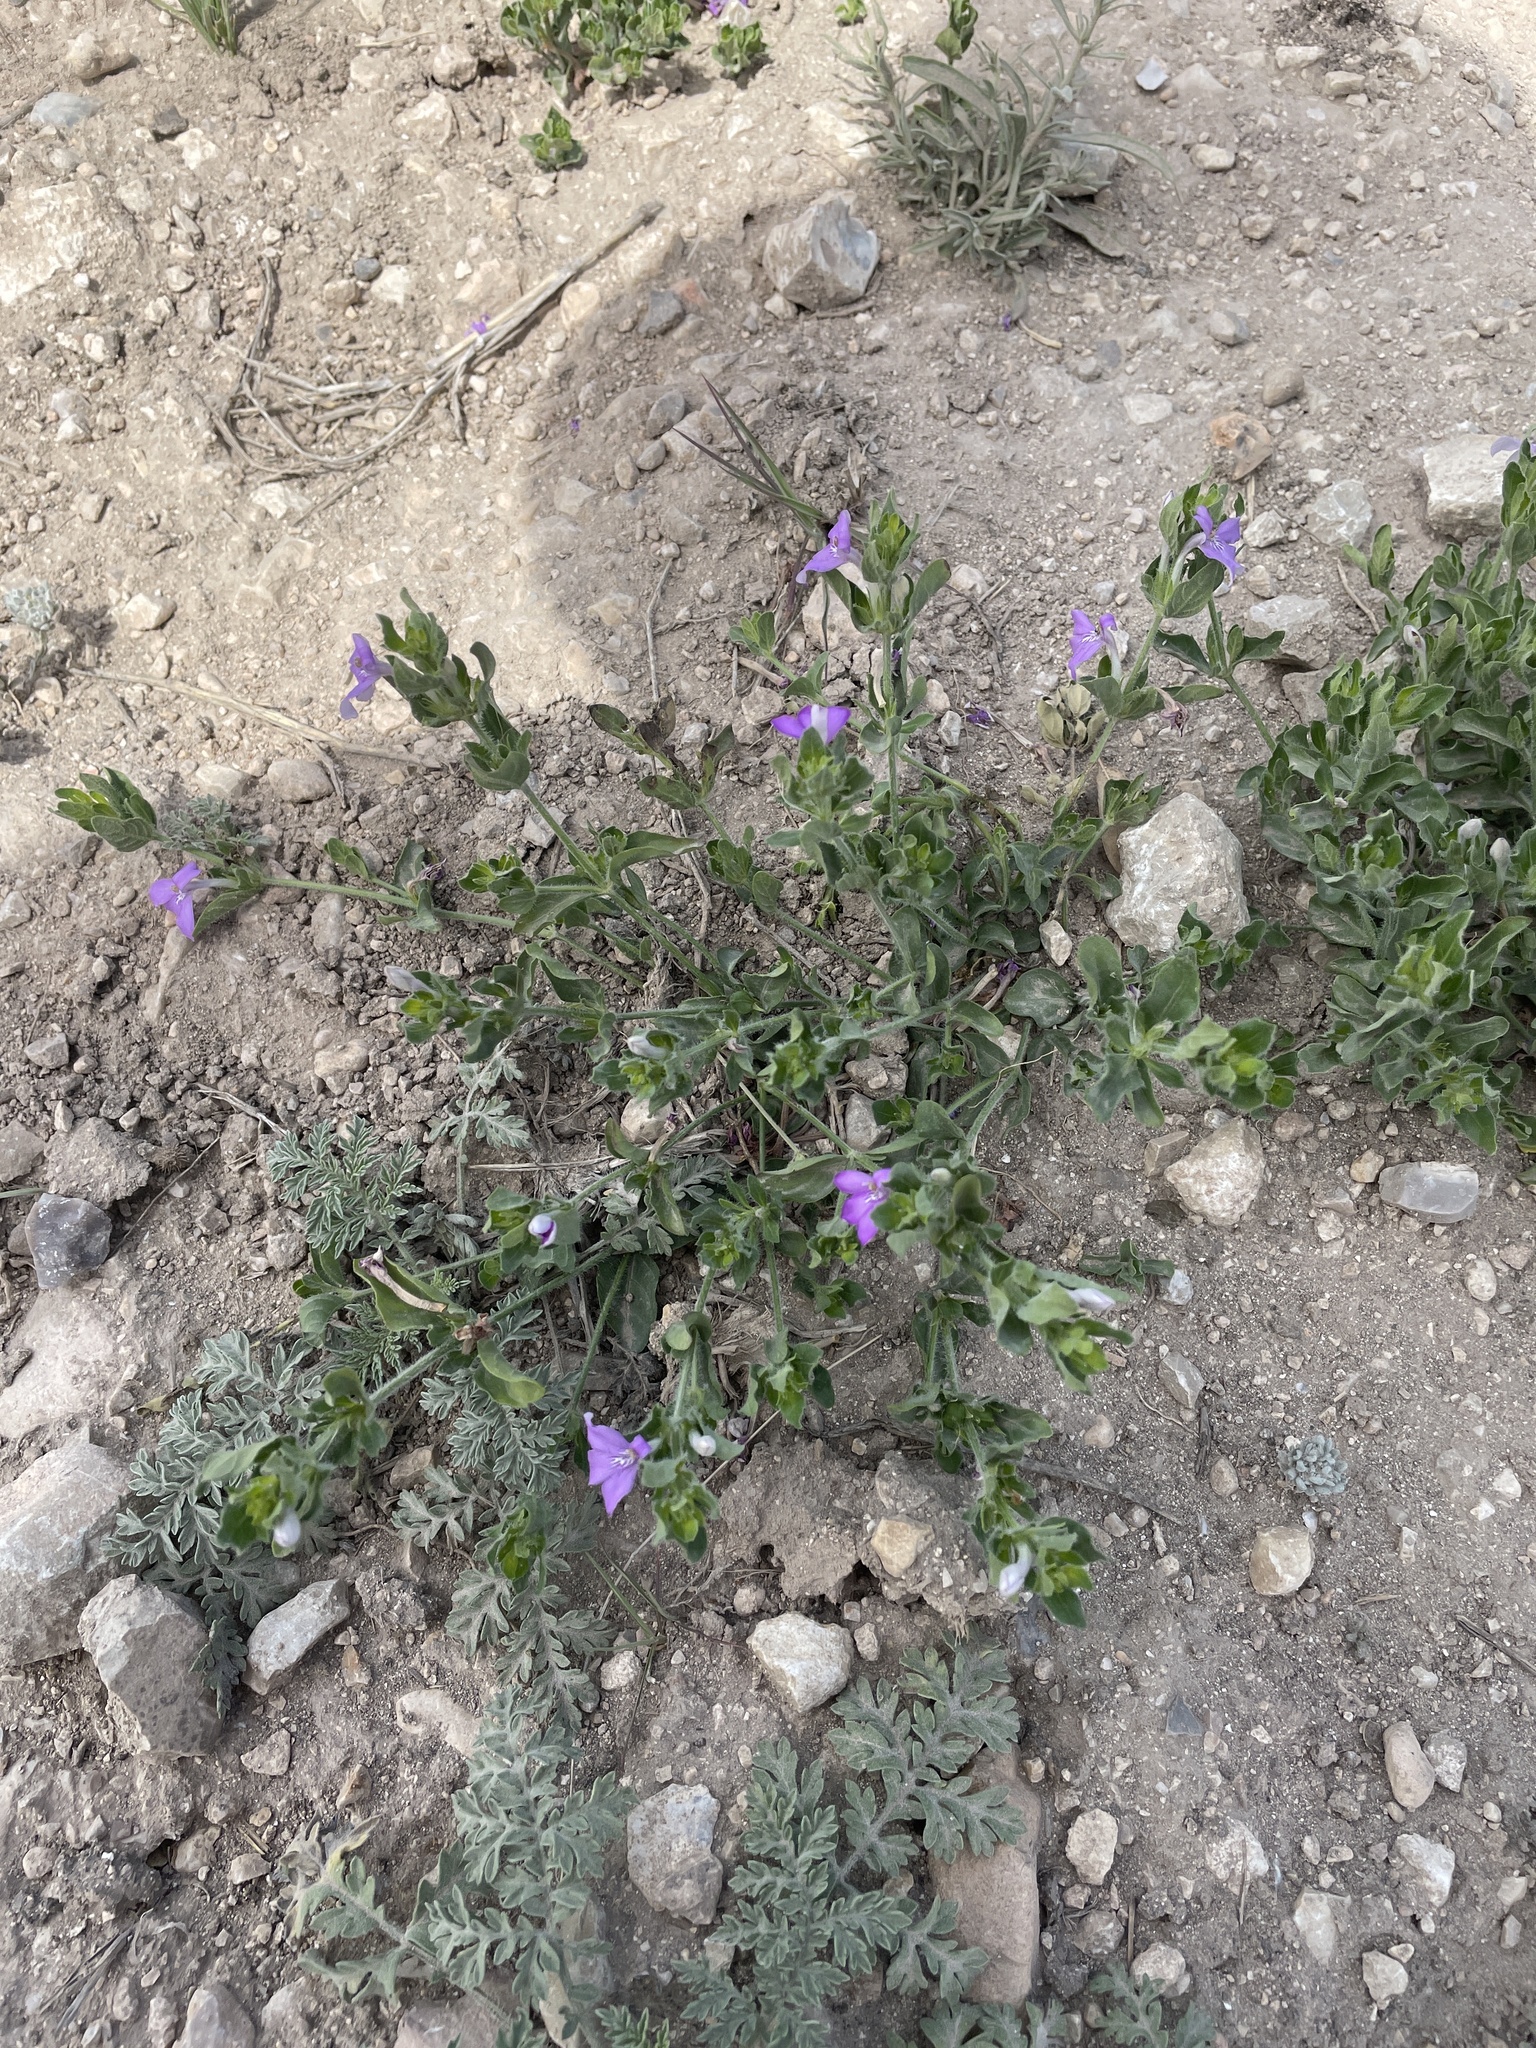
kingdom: Plantae
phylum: Tracheophyta
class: Magnoliopsida
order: Lamiales
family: Acanthaceae
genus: Justicia
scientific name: Justicia pilosella
